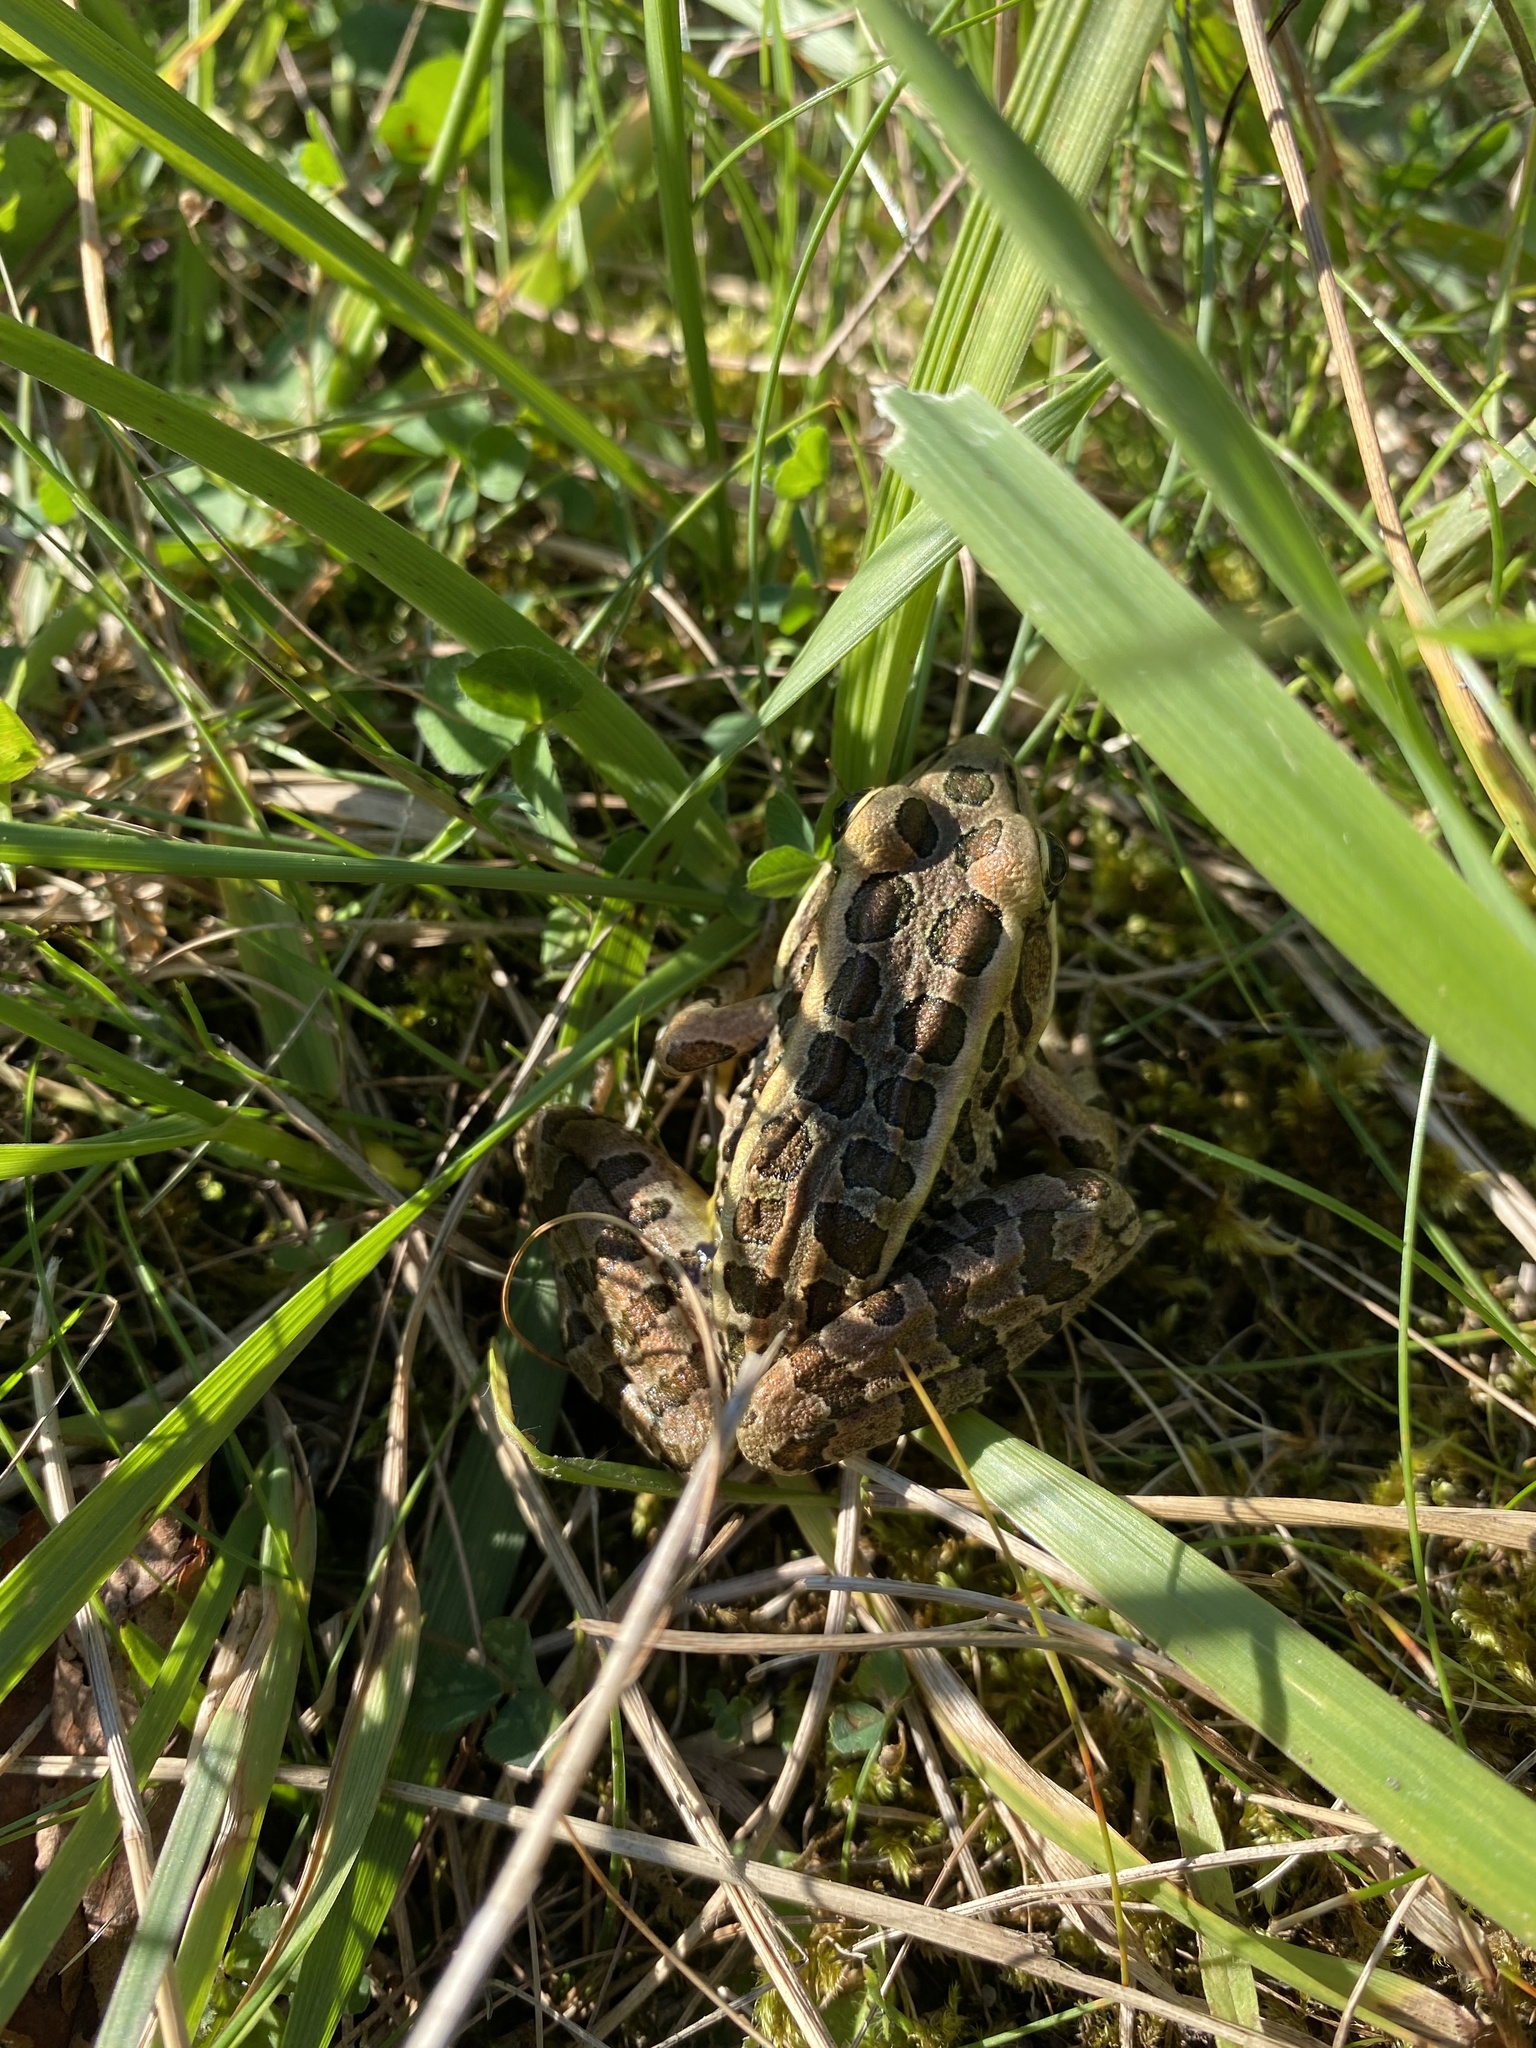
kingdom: Animalia
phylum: Chordata
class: Amphibia
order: Anura
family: Ranidae
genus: Lithobates
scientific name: Lithobates palustris
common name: Pickerel frog
